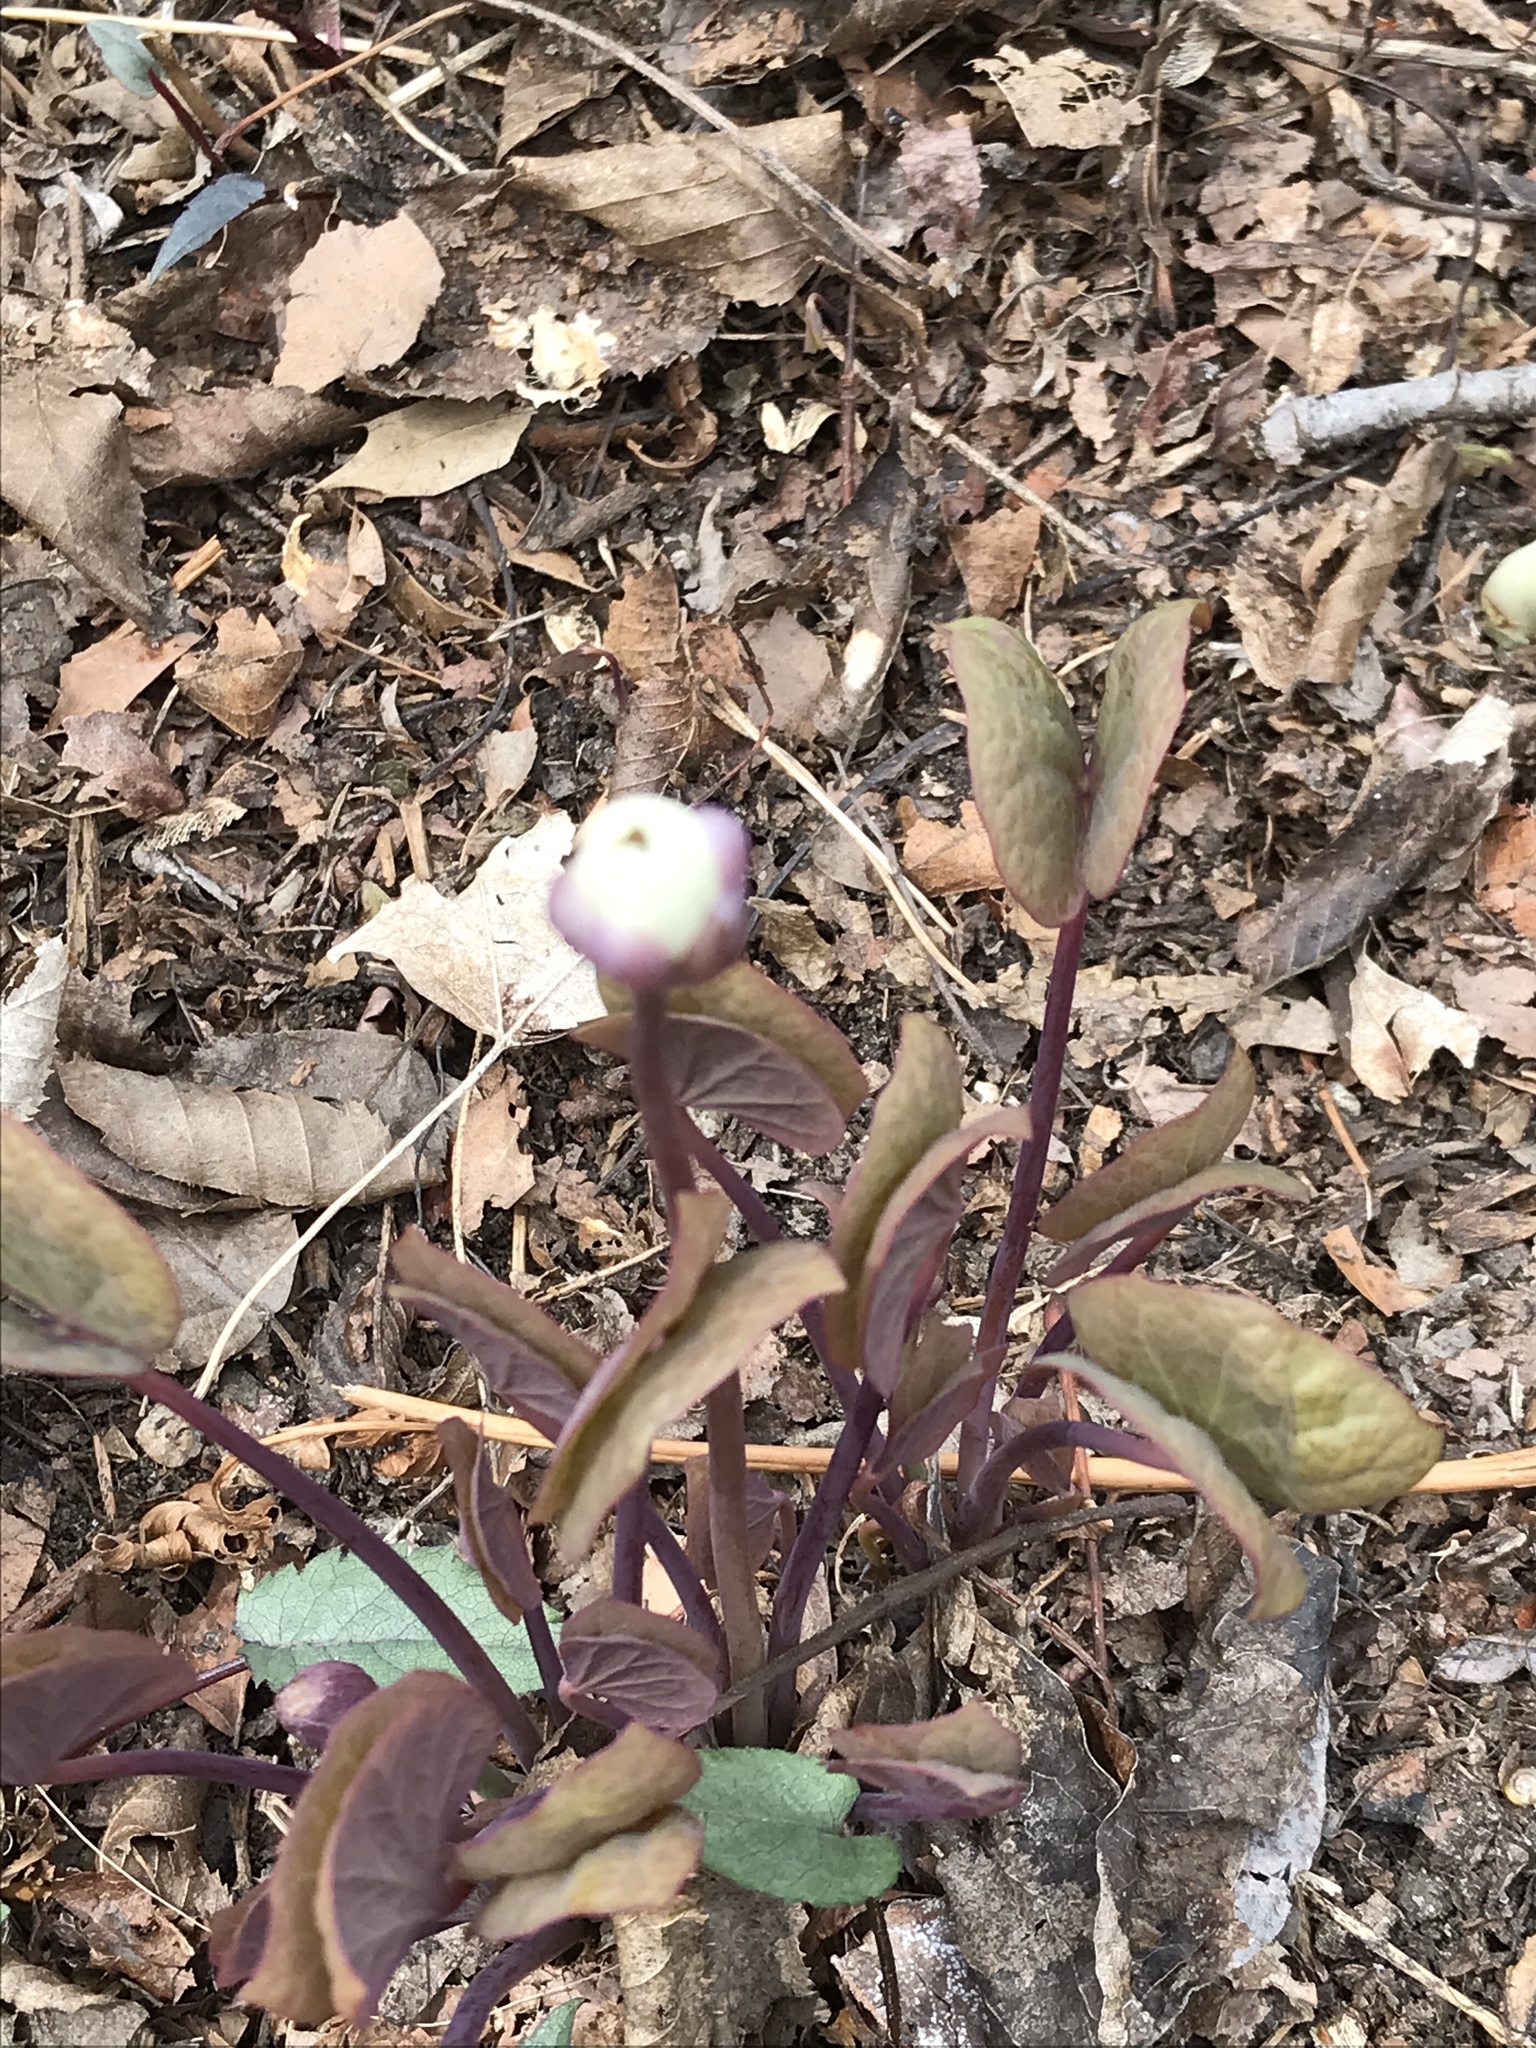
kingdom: Plantae
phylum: Tracheophyta
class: Magnoliopsida
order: Ranunculales
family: Berberidaceae
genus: Jeffersonia
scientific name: Jeffersonia diphylla
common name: Rheumatism-root
